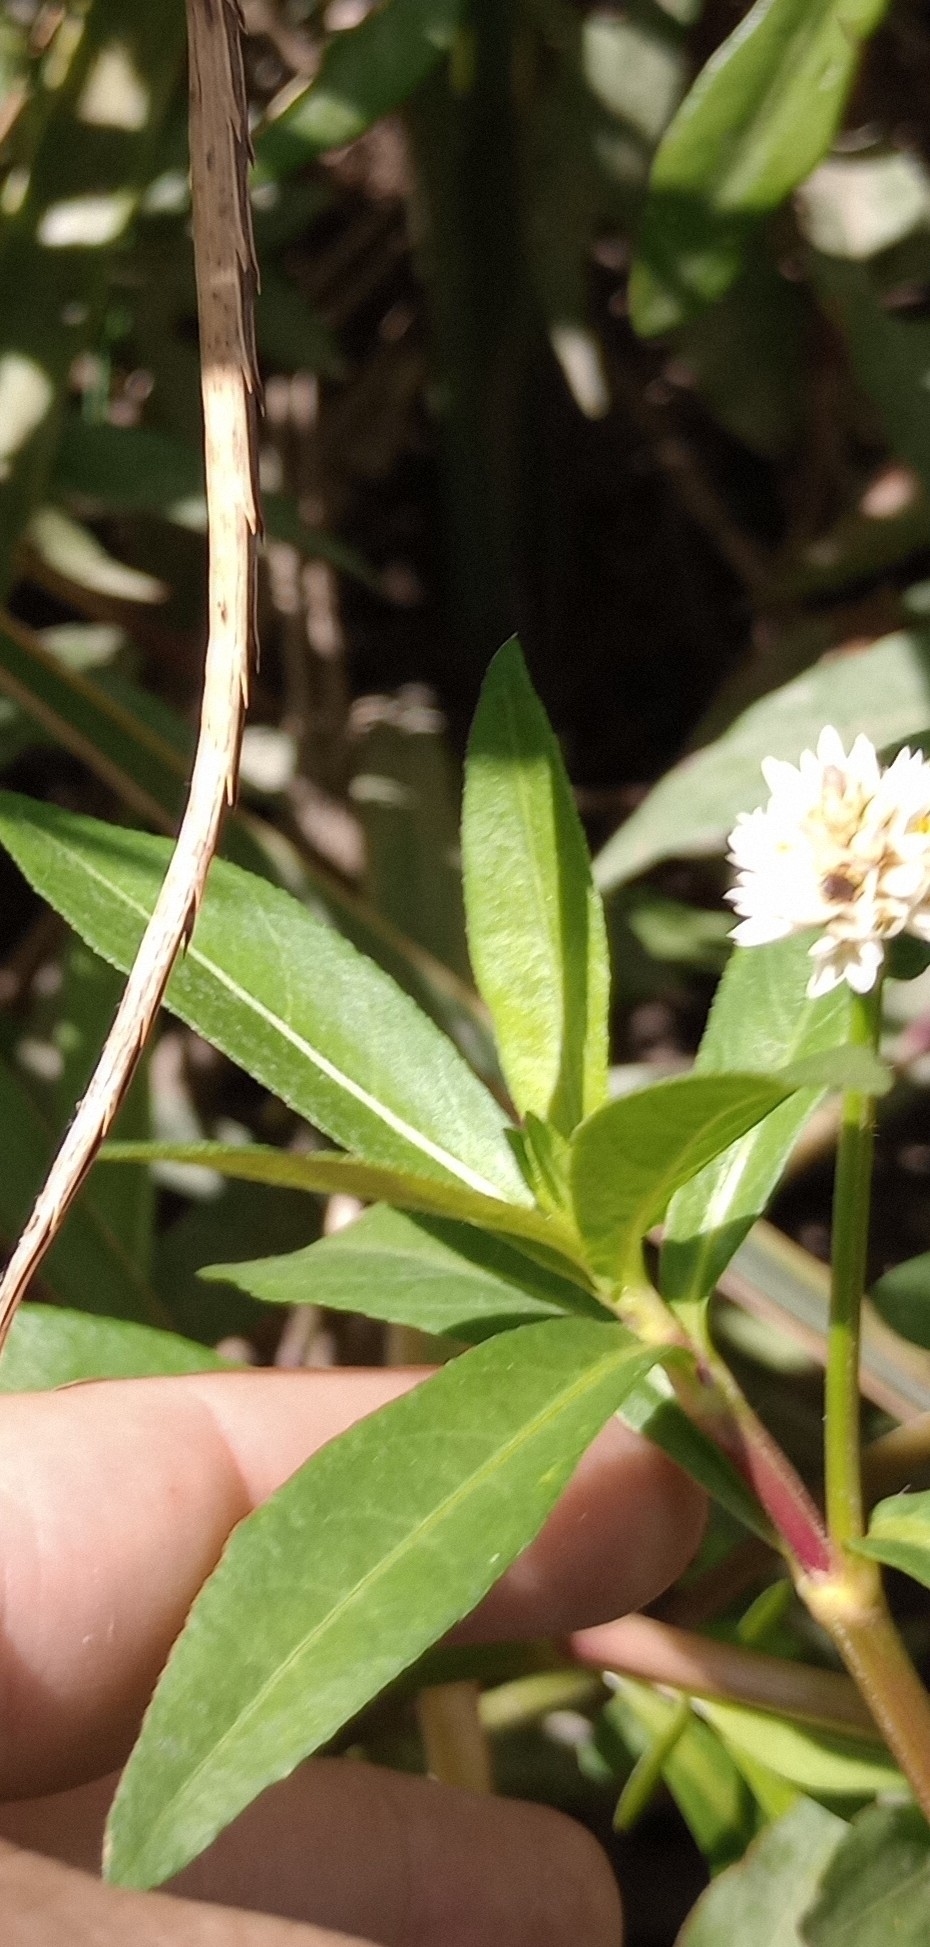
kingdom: Plantae
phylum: Tracheophyta
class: Magnoliopsida
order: Caryophyllales
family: Amaranthaceae
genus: Alternanthera
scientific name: Alternanthera philoxeroides
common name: Alligatorweed
